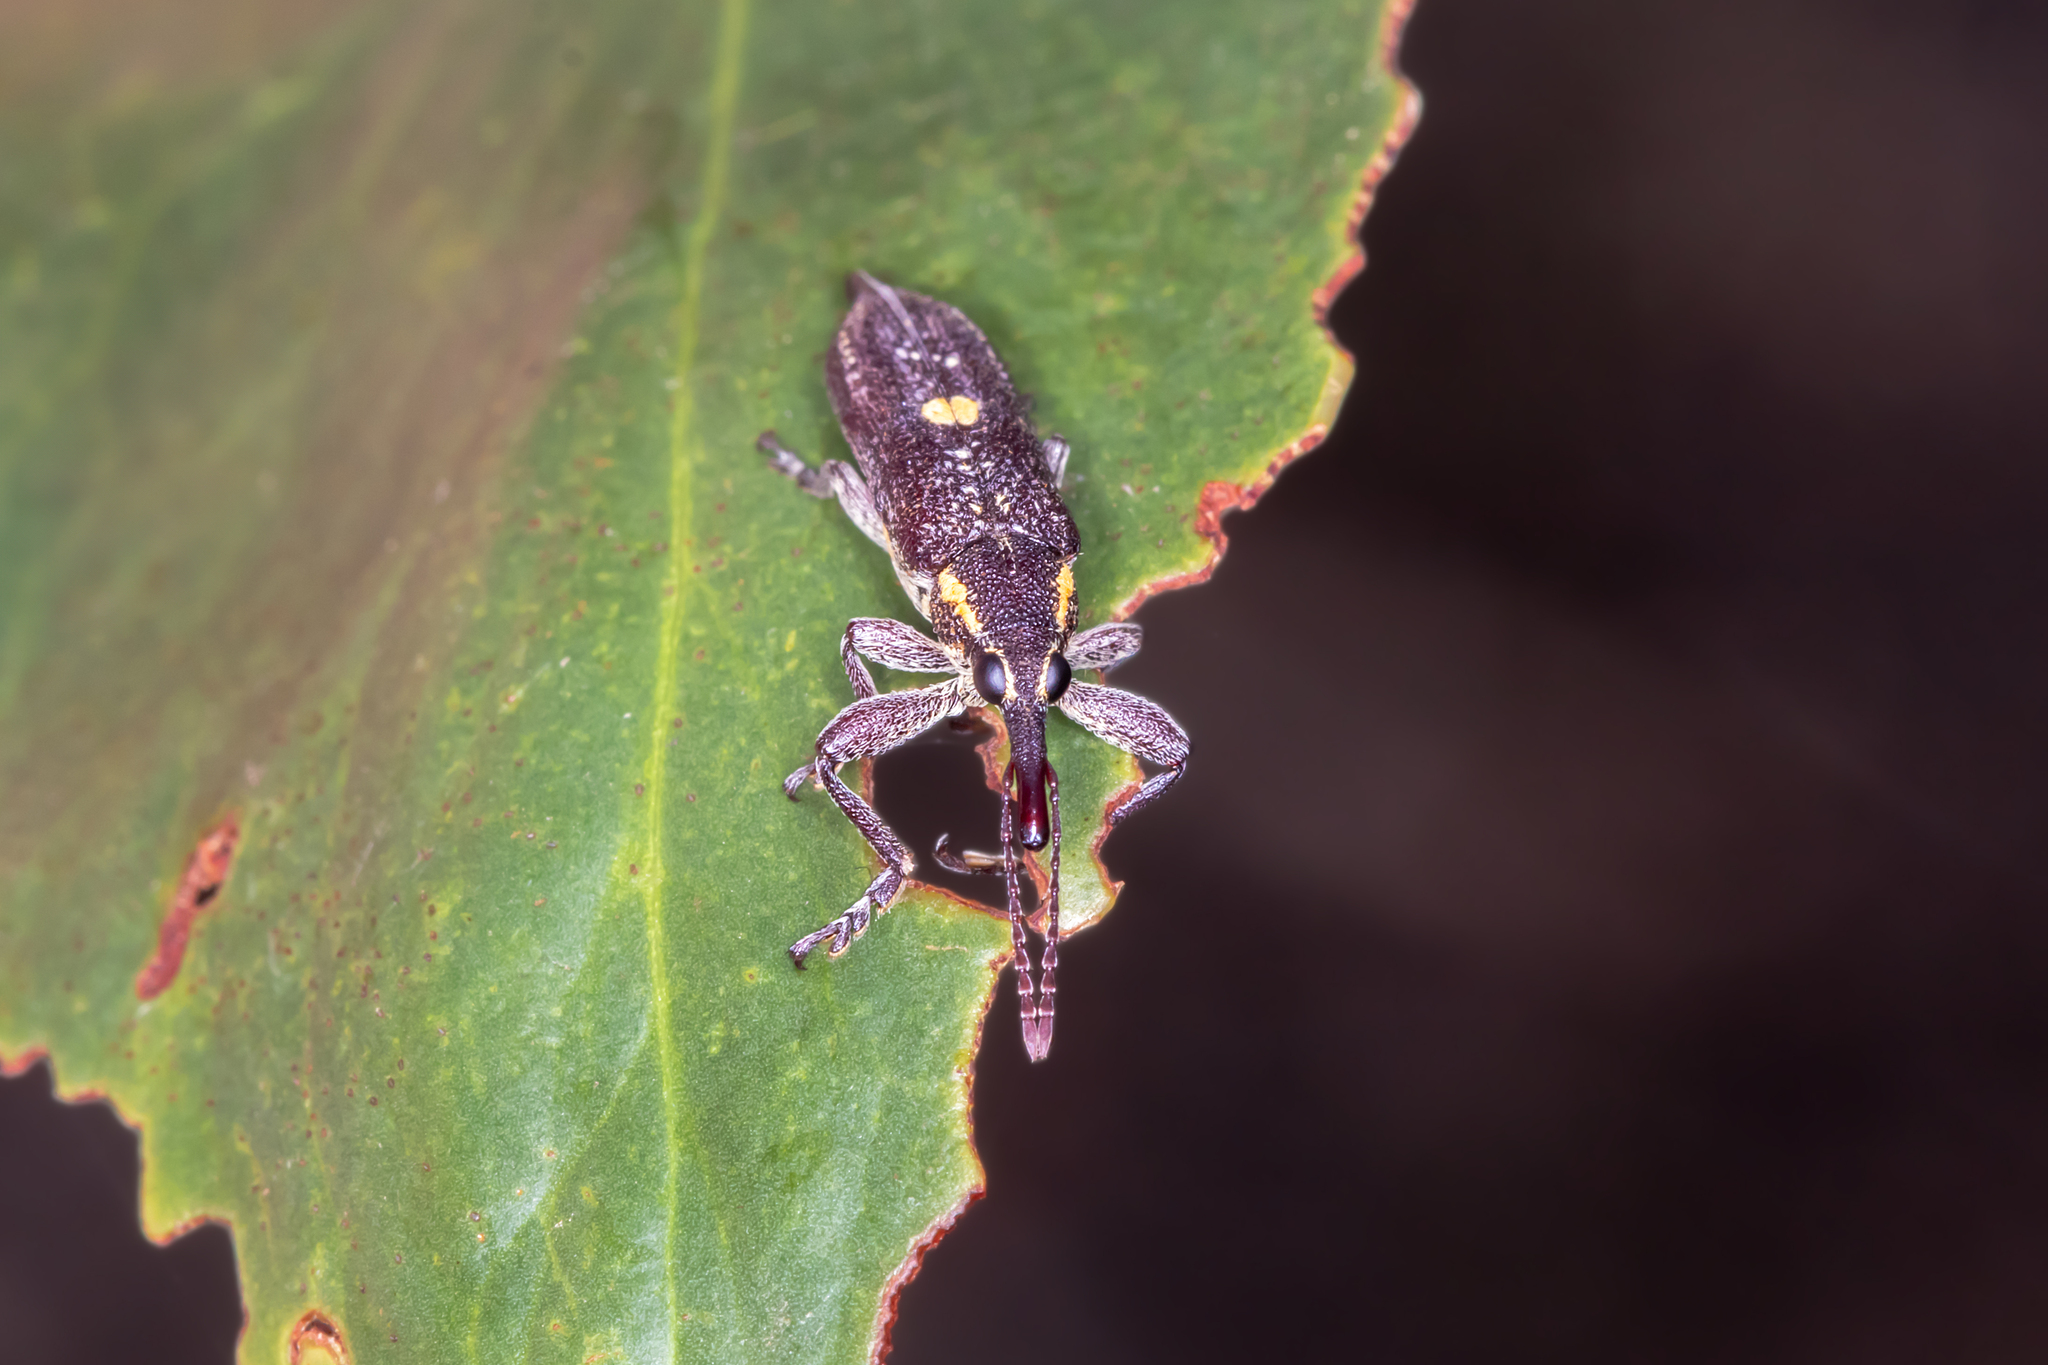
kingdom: Animalia
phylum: Arthropoda
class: Insecta
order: Coleoptera
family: Belidae
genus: Rhinotia
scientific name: Rhinotia
